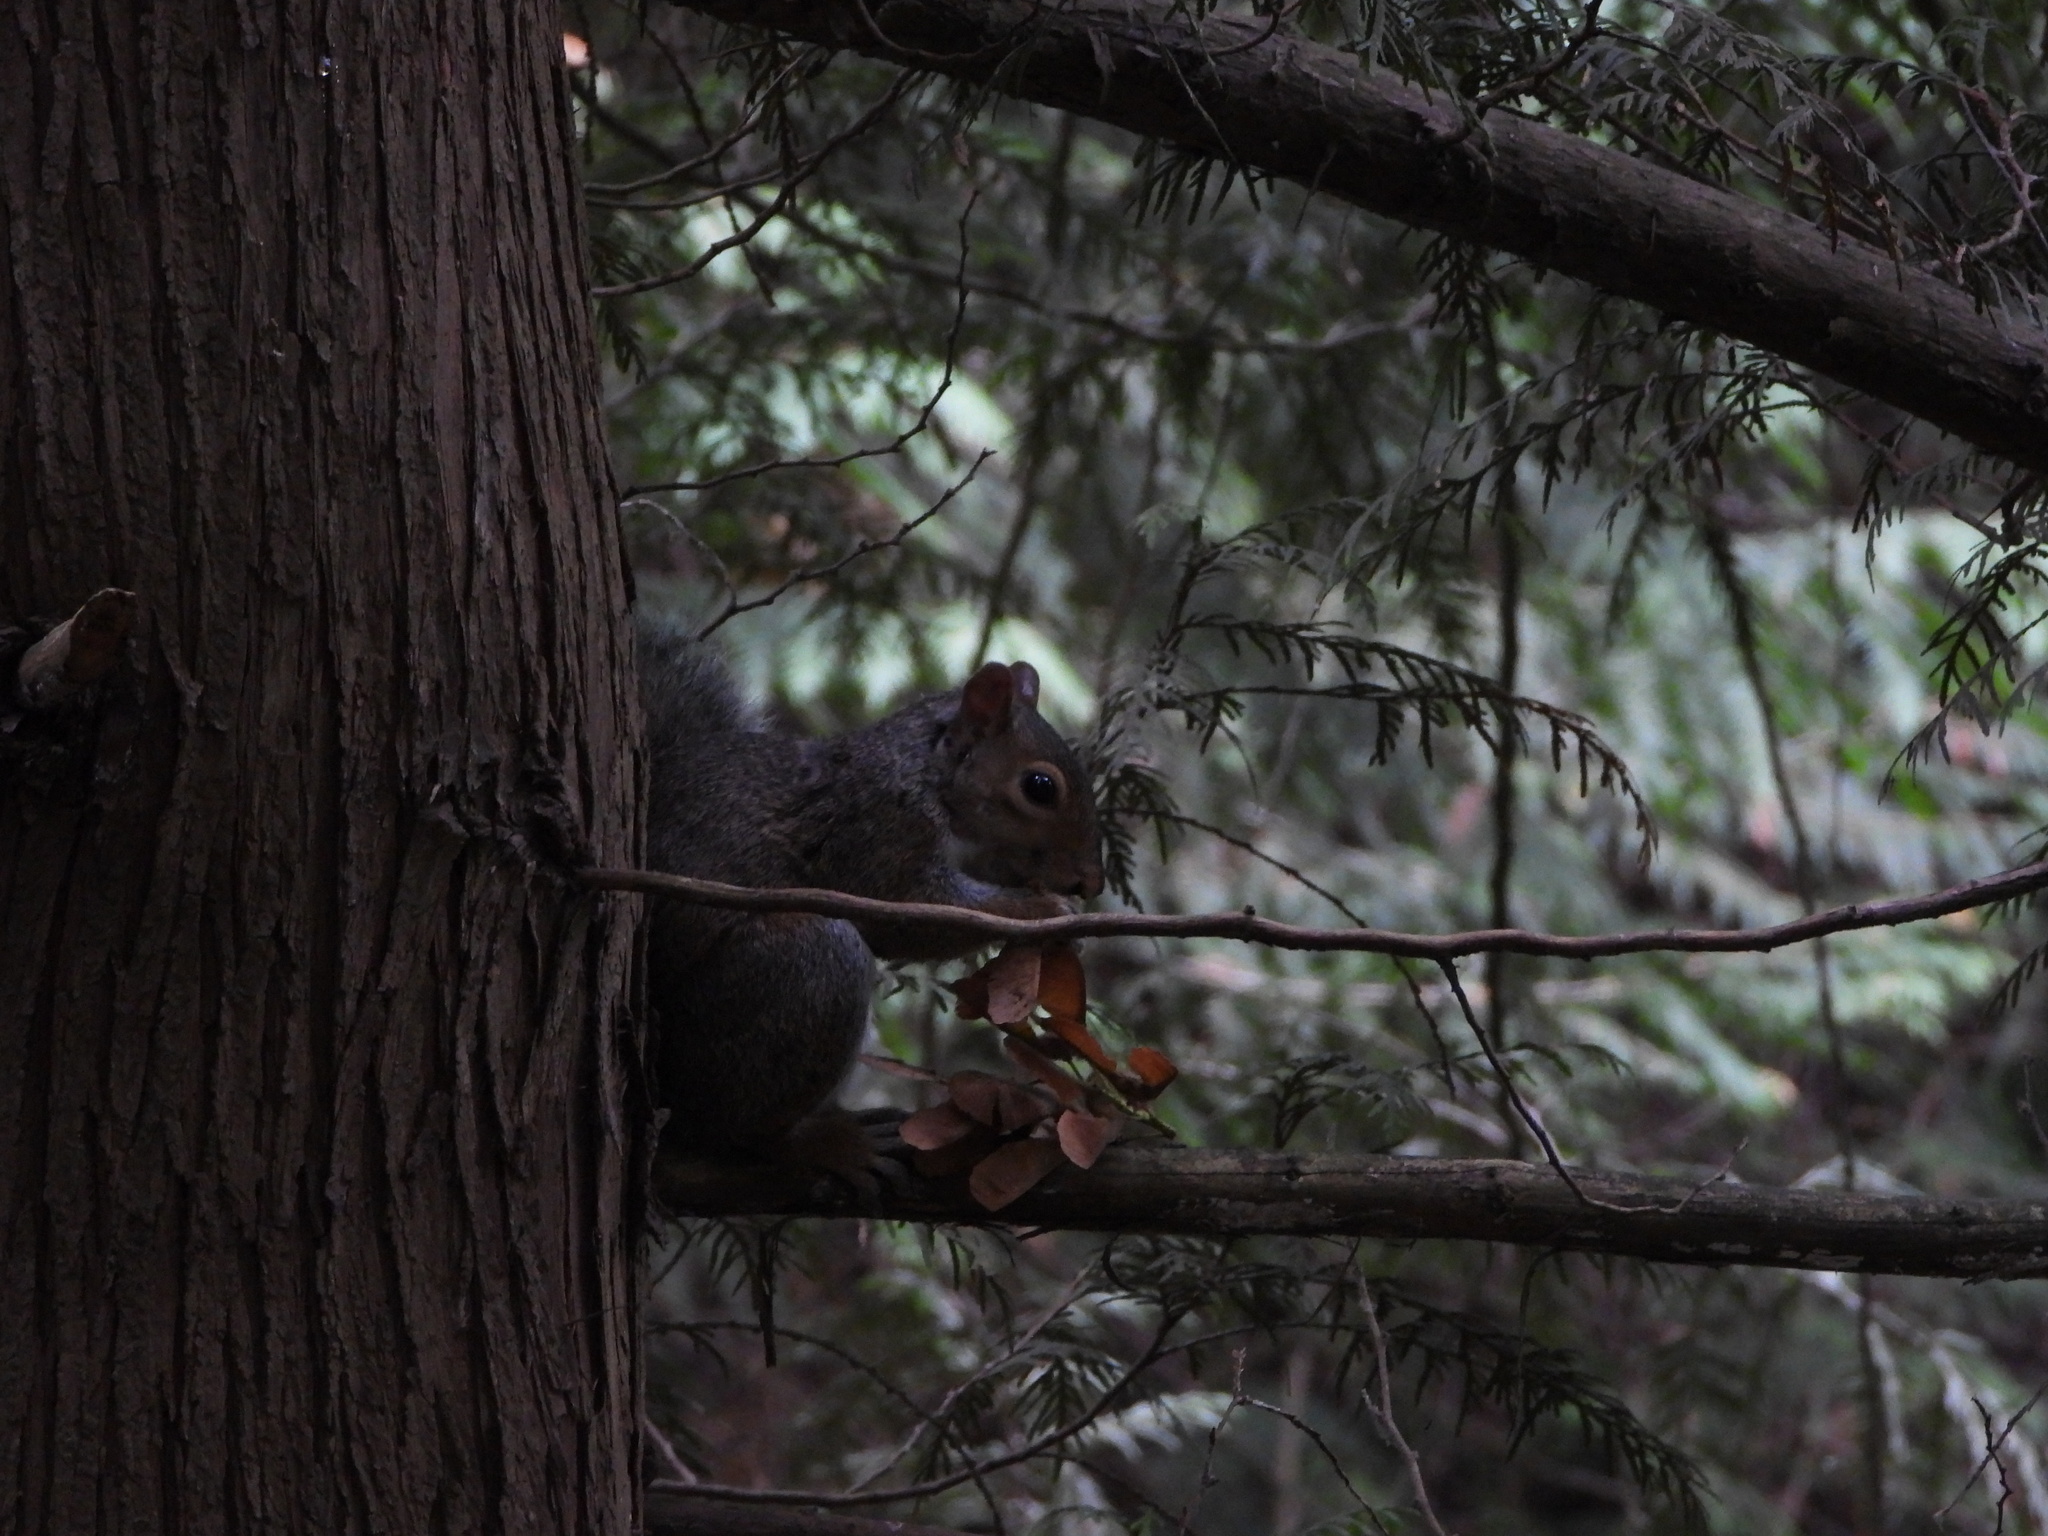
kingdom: Animalia
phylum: Chordata
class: Mammalia
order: Rodentia
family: Sciuridae
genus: Sciurus
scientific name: Sciurus carolinensis
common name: Eastern gray squirrel
